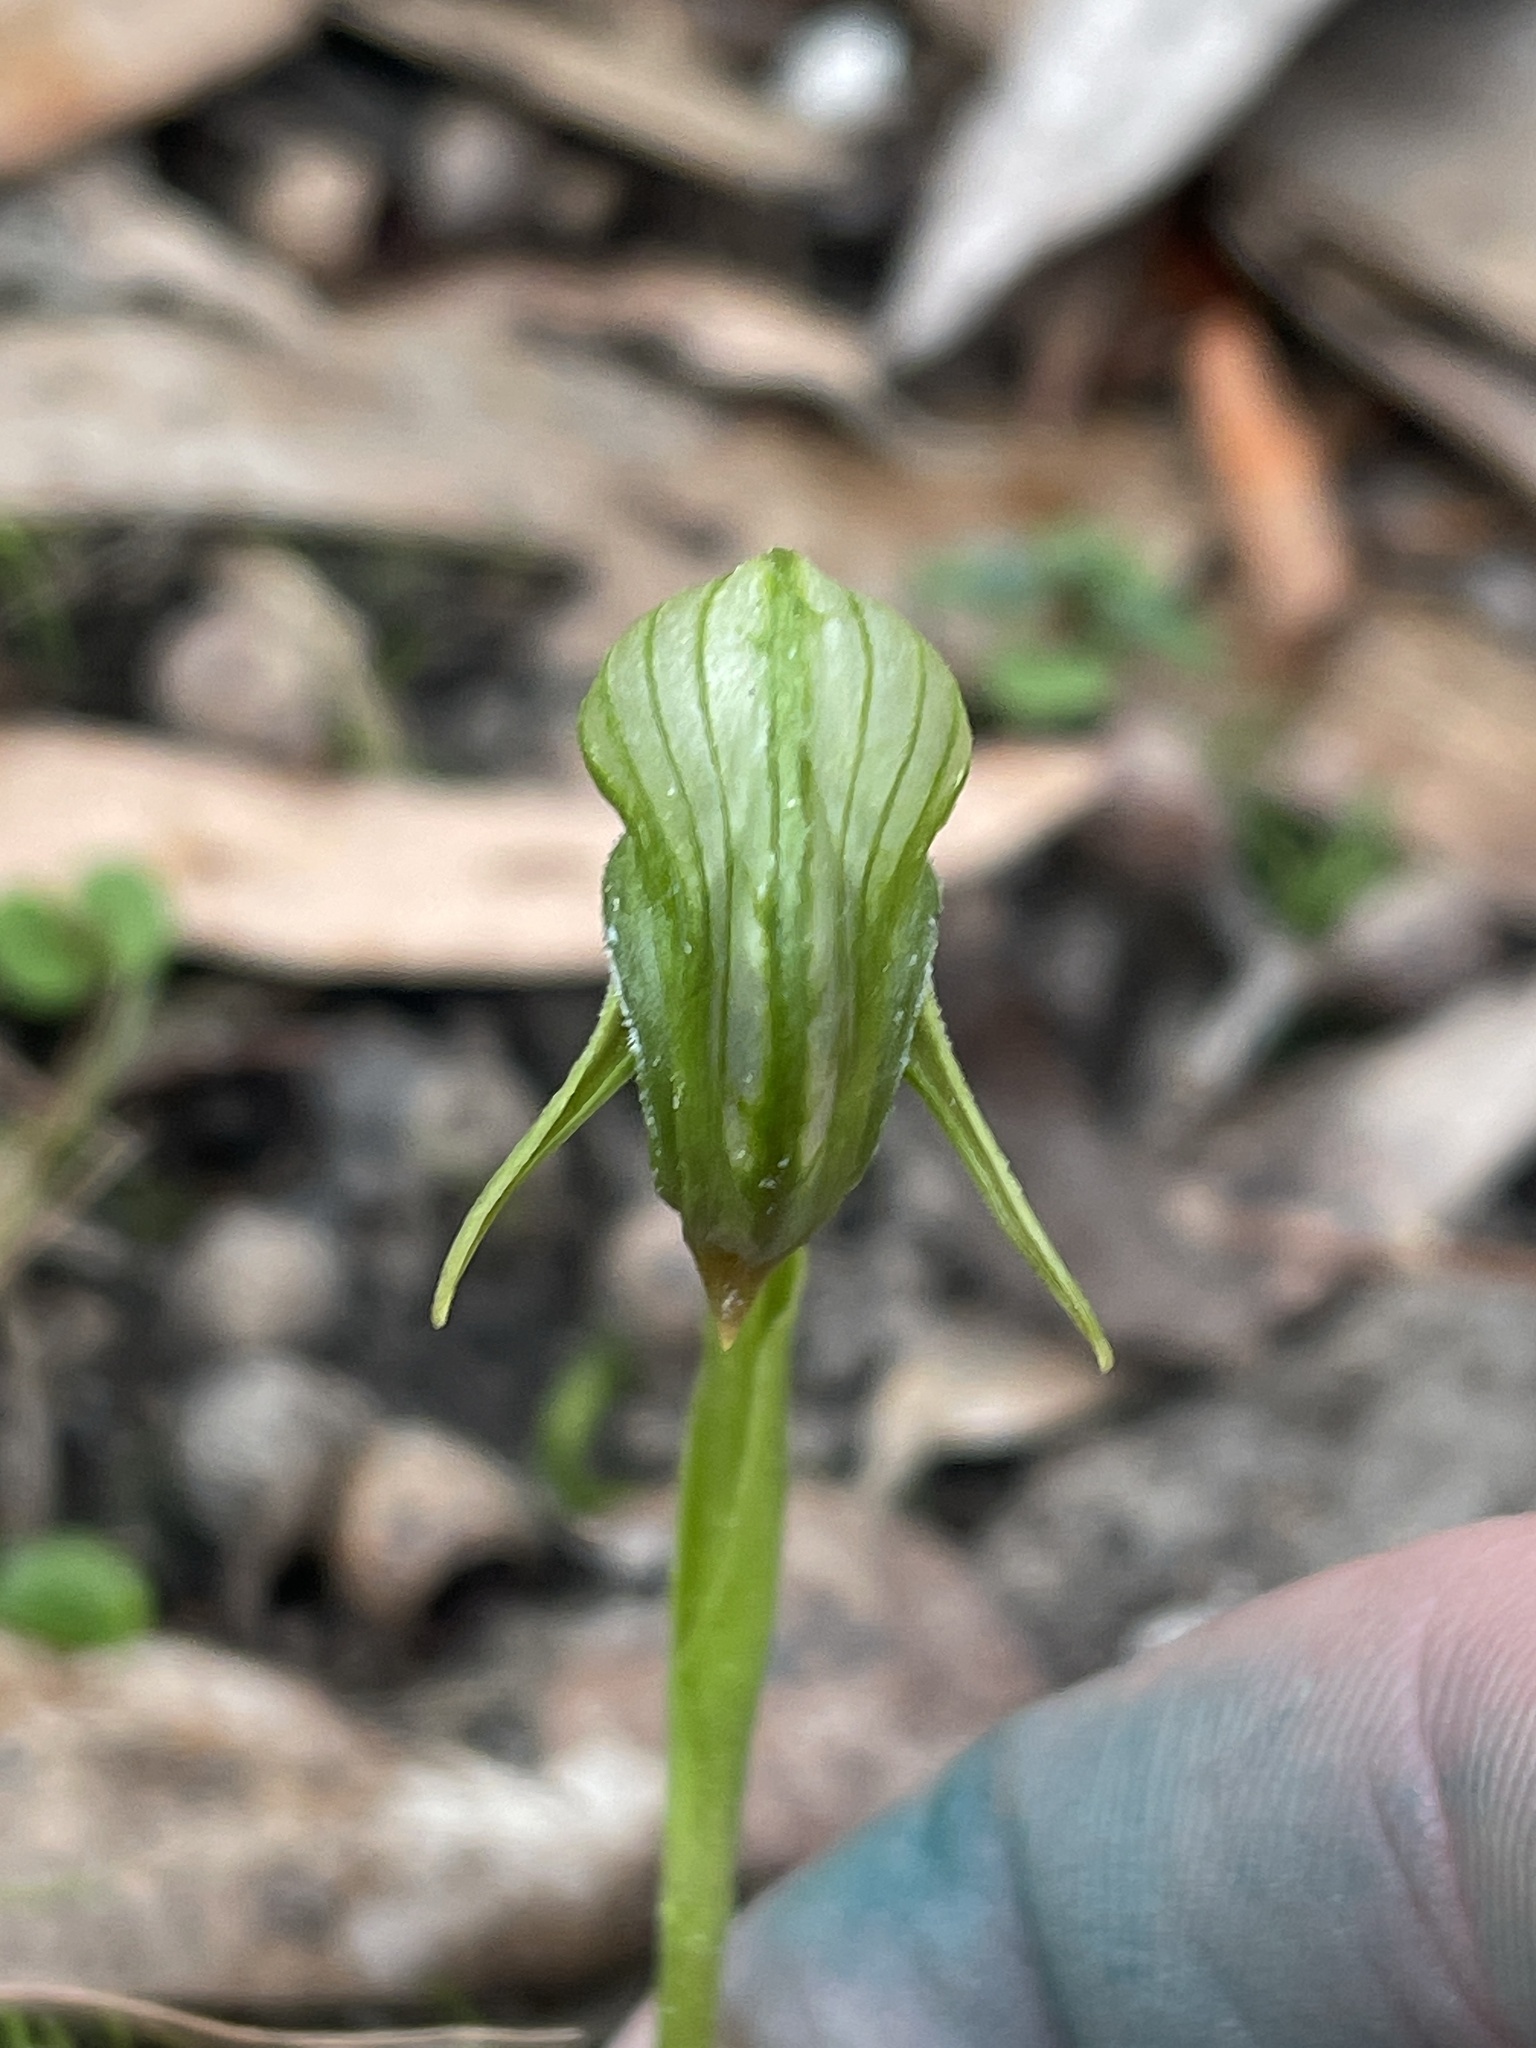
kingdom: Plantae
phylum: Tracheophyta
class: Liliopsida
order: Asparagales
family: Orchidaceae
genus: Pterostylis
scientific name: Pterostylis nutans
